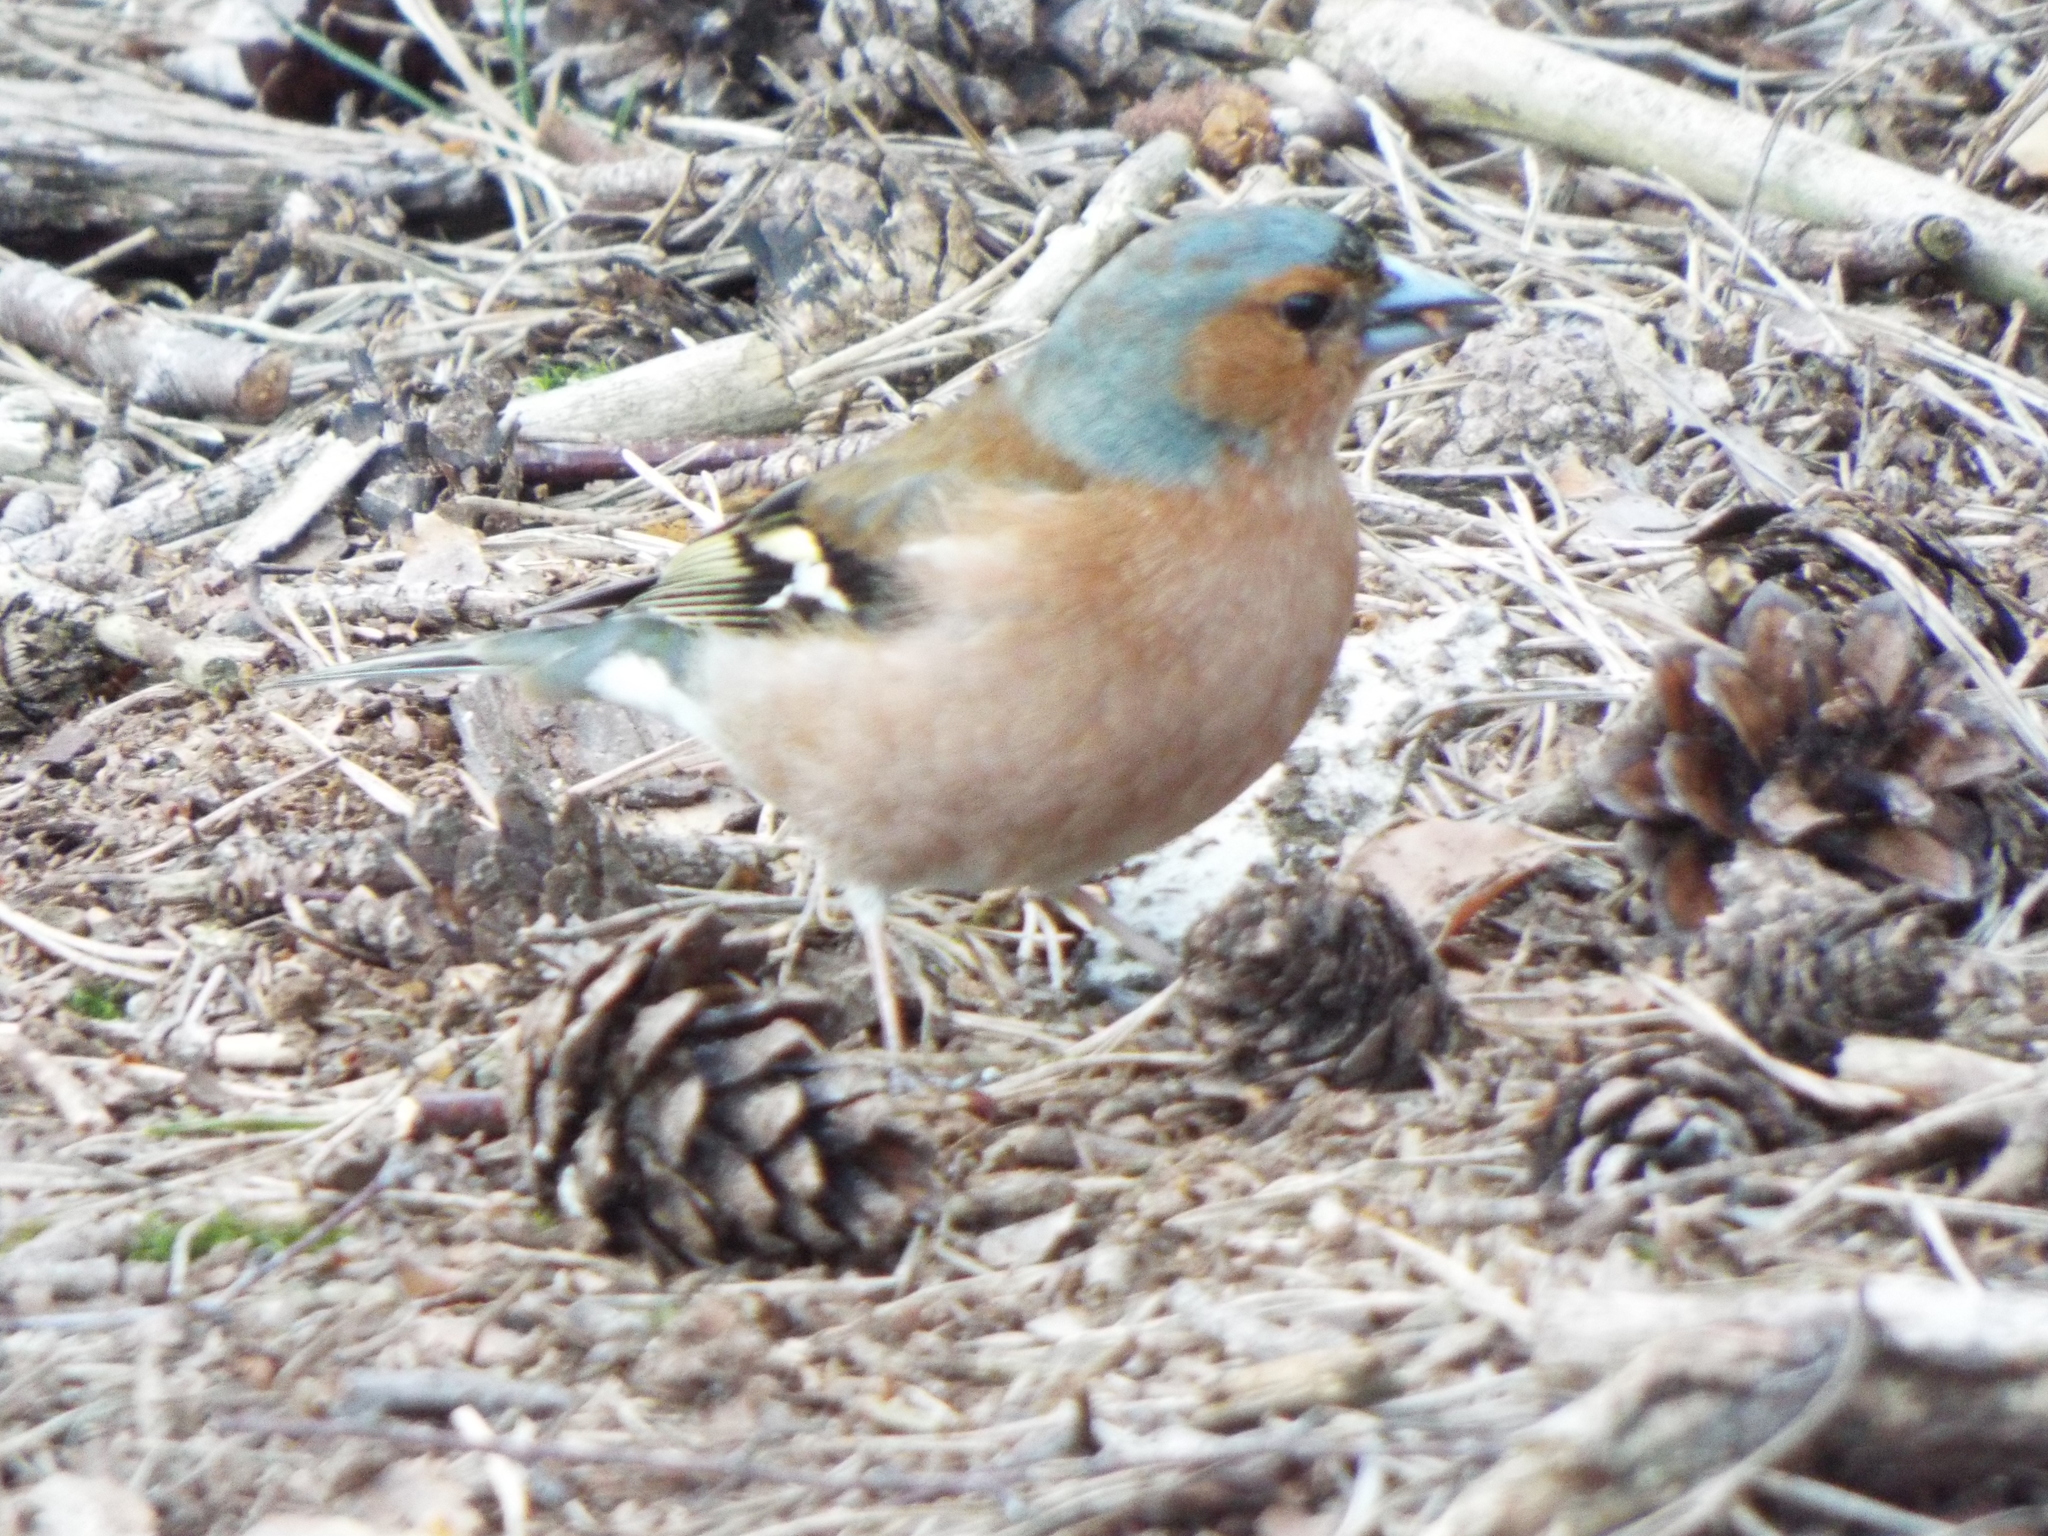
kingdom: Animalia
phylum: Chordata
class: Aves
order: Passeriformes
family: Fringillidae
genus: Fringilla
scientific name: Fringilla coelebs
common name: Common chaffinch
